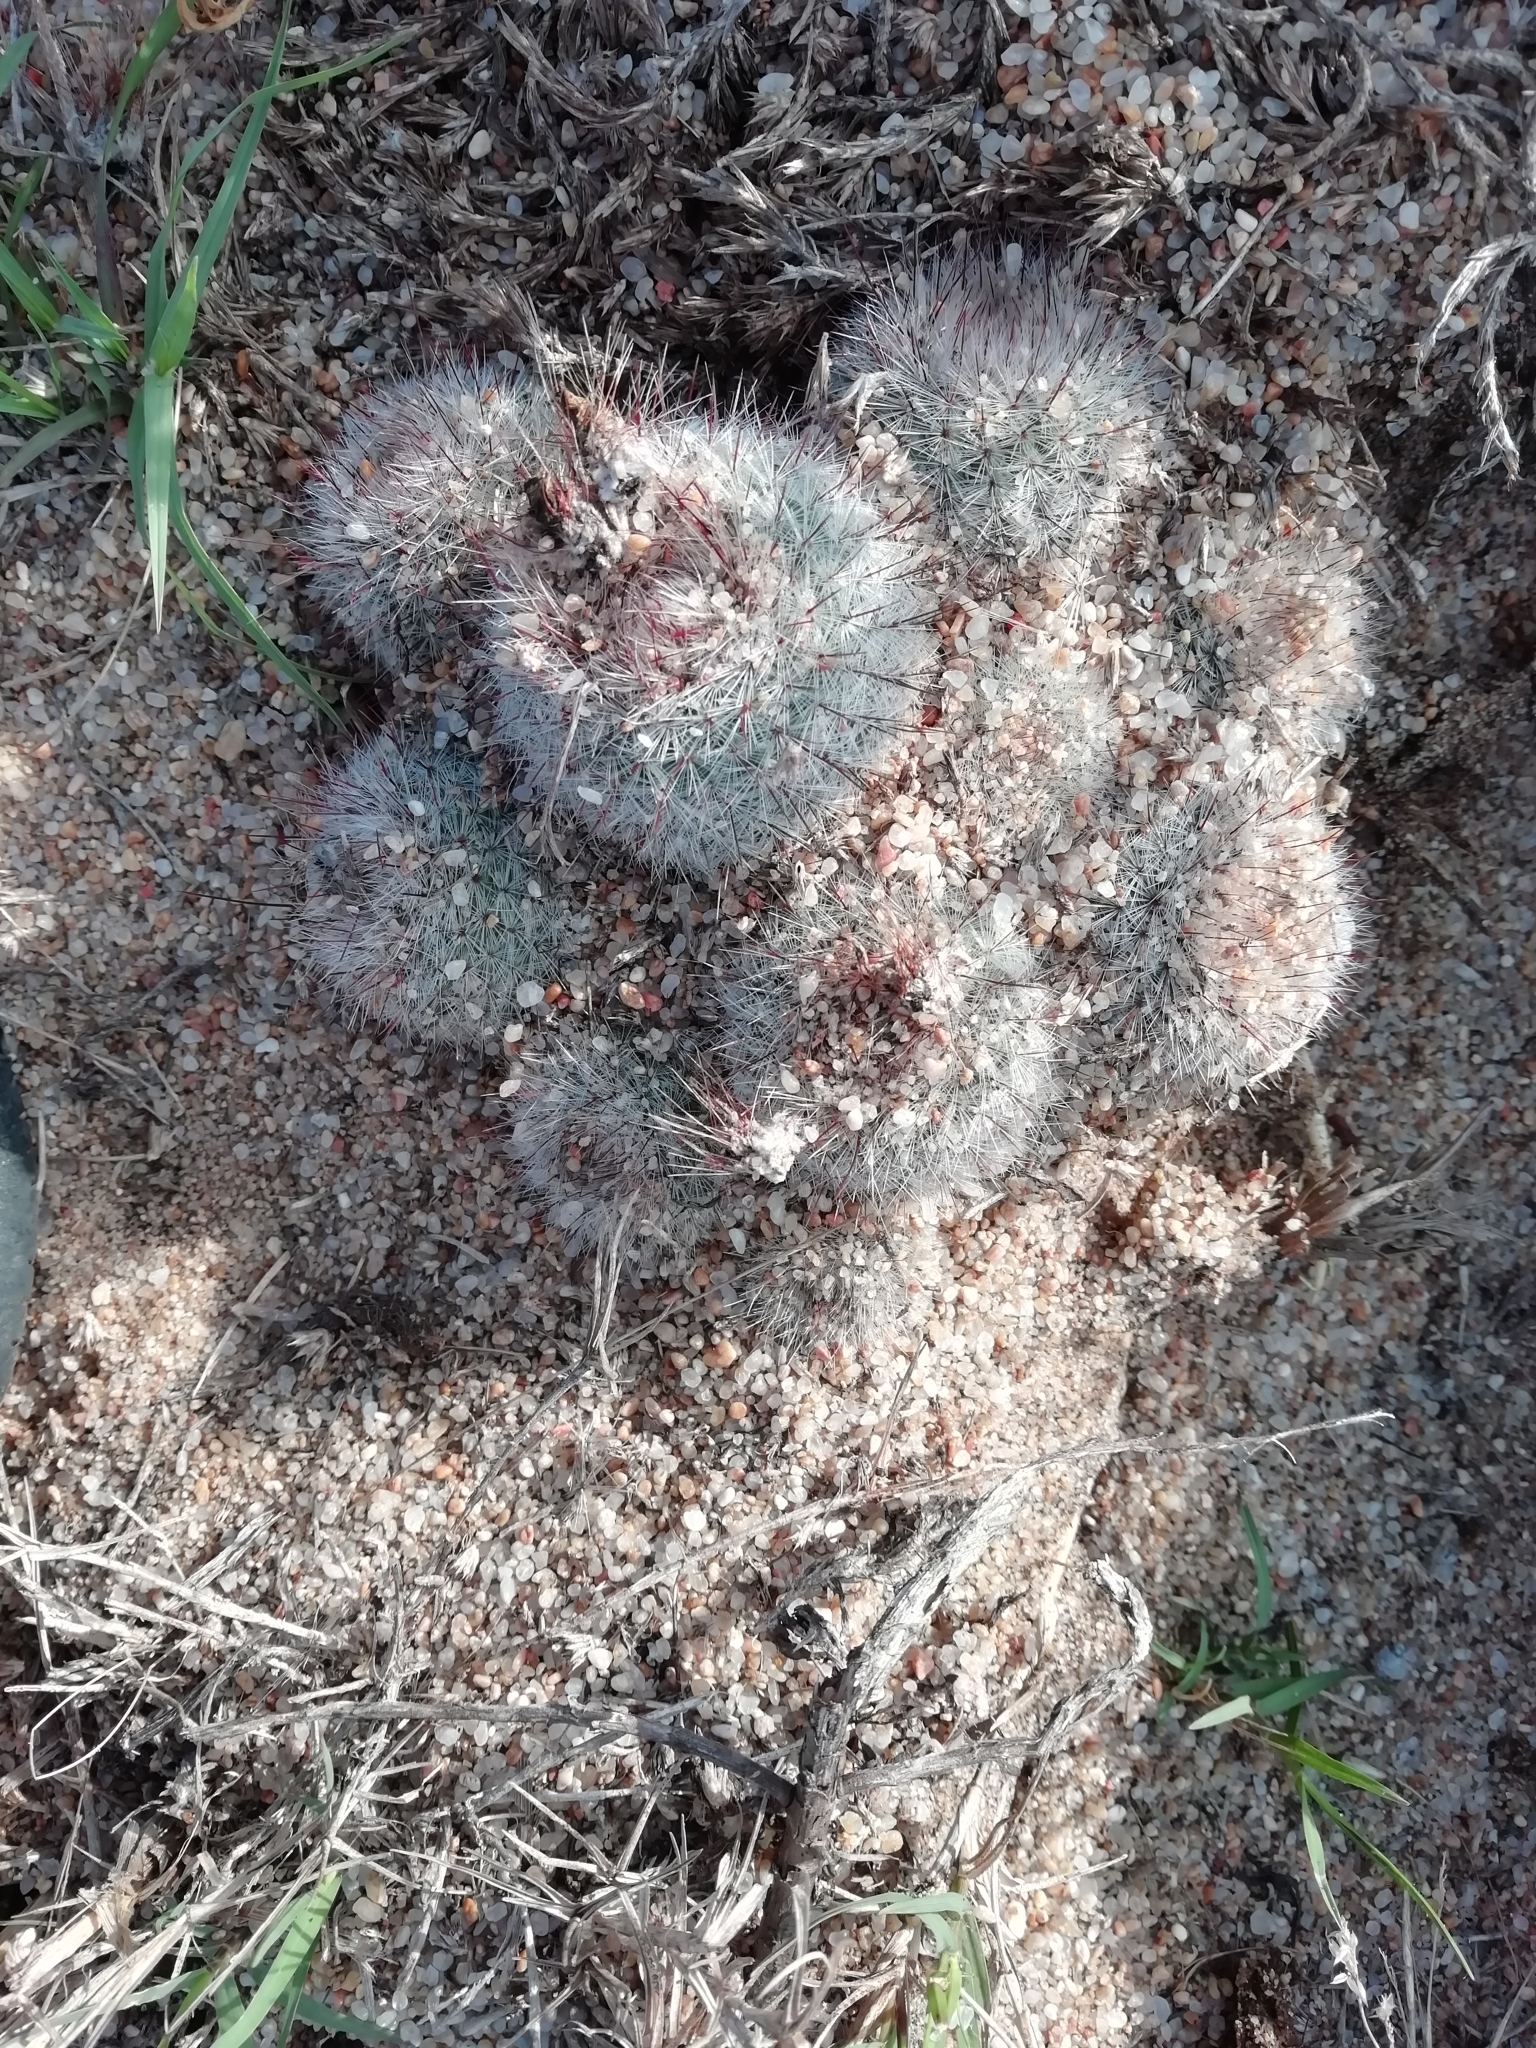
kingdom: Plantae
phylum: Tracheophyta
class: Magnoliopsida
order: Caryophyllales
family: Cactaceae
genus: Parodia
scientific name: Parodia scopa
